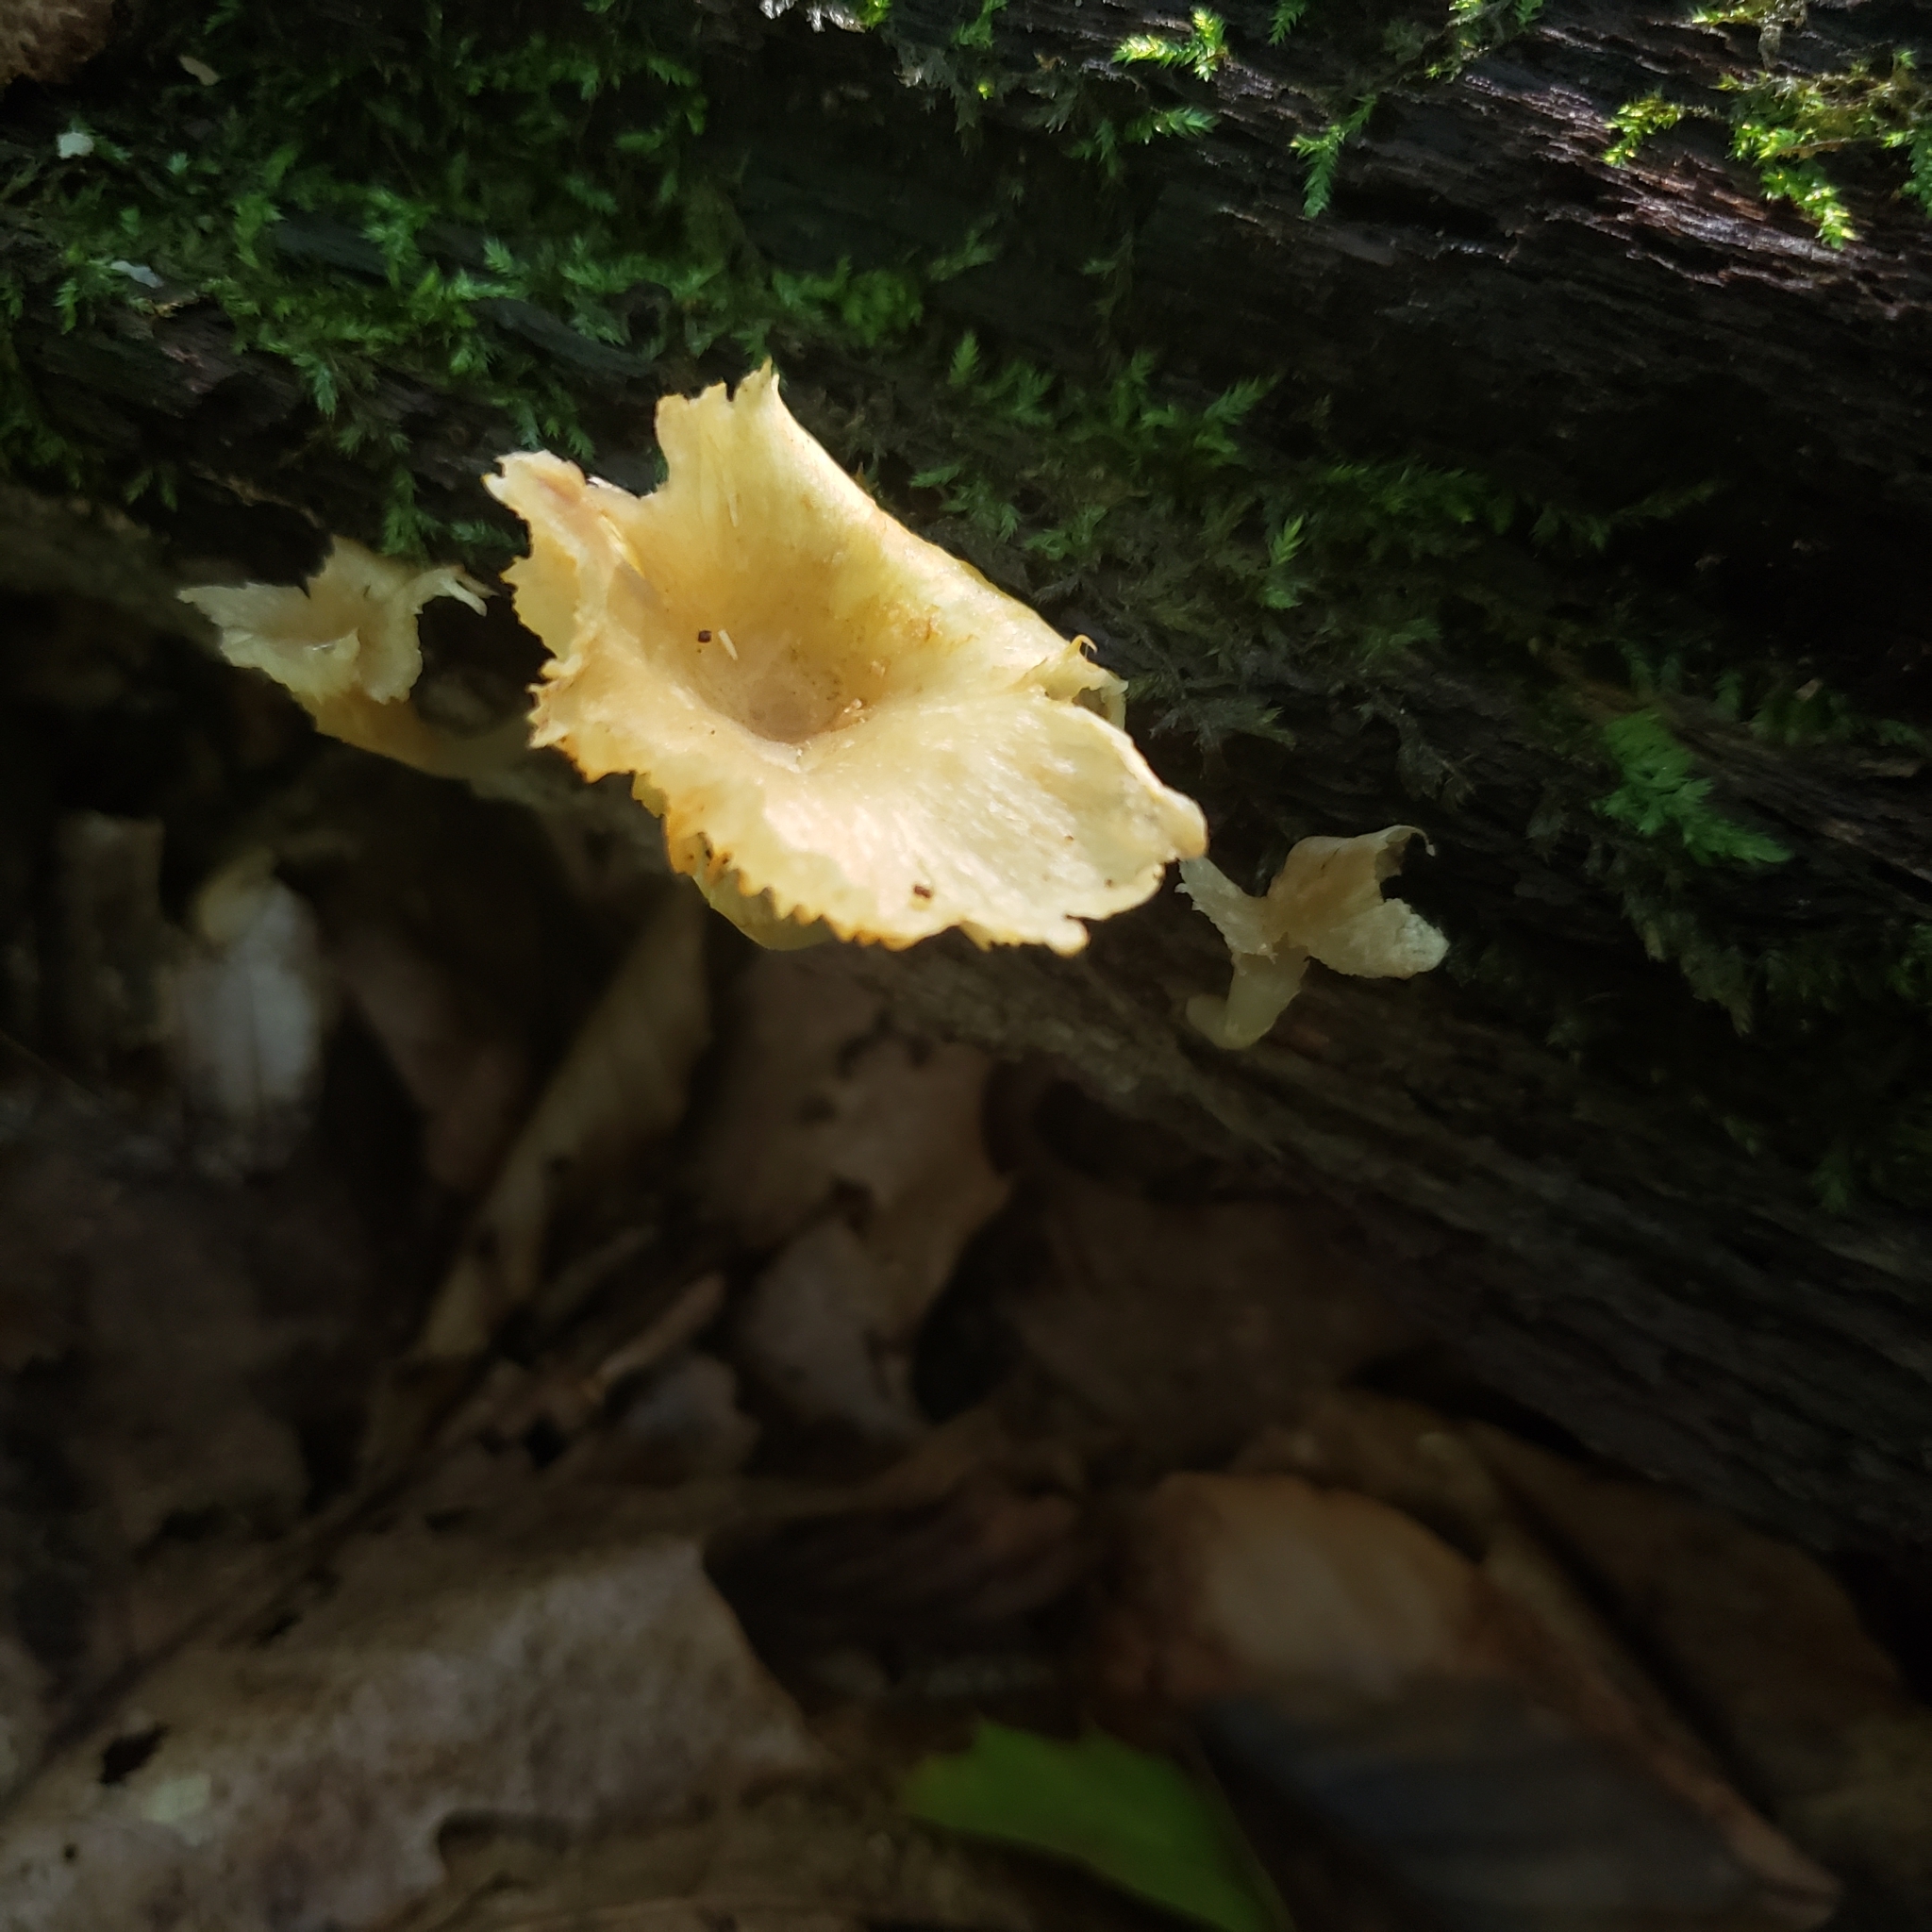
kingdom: Fungi
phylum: Basidiomycota
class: Agaricomycetes
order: Agaricales
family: Marasmiaceae
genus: Gerronema
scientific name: Gerronema strombodes
